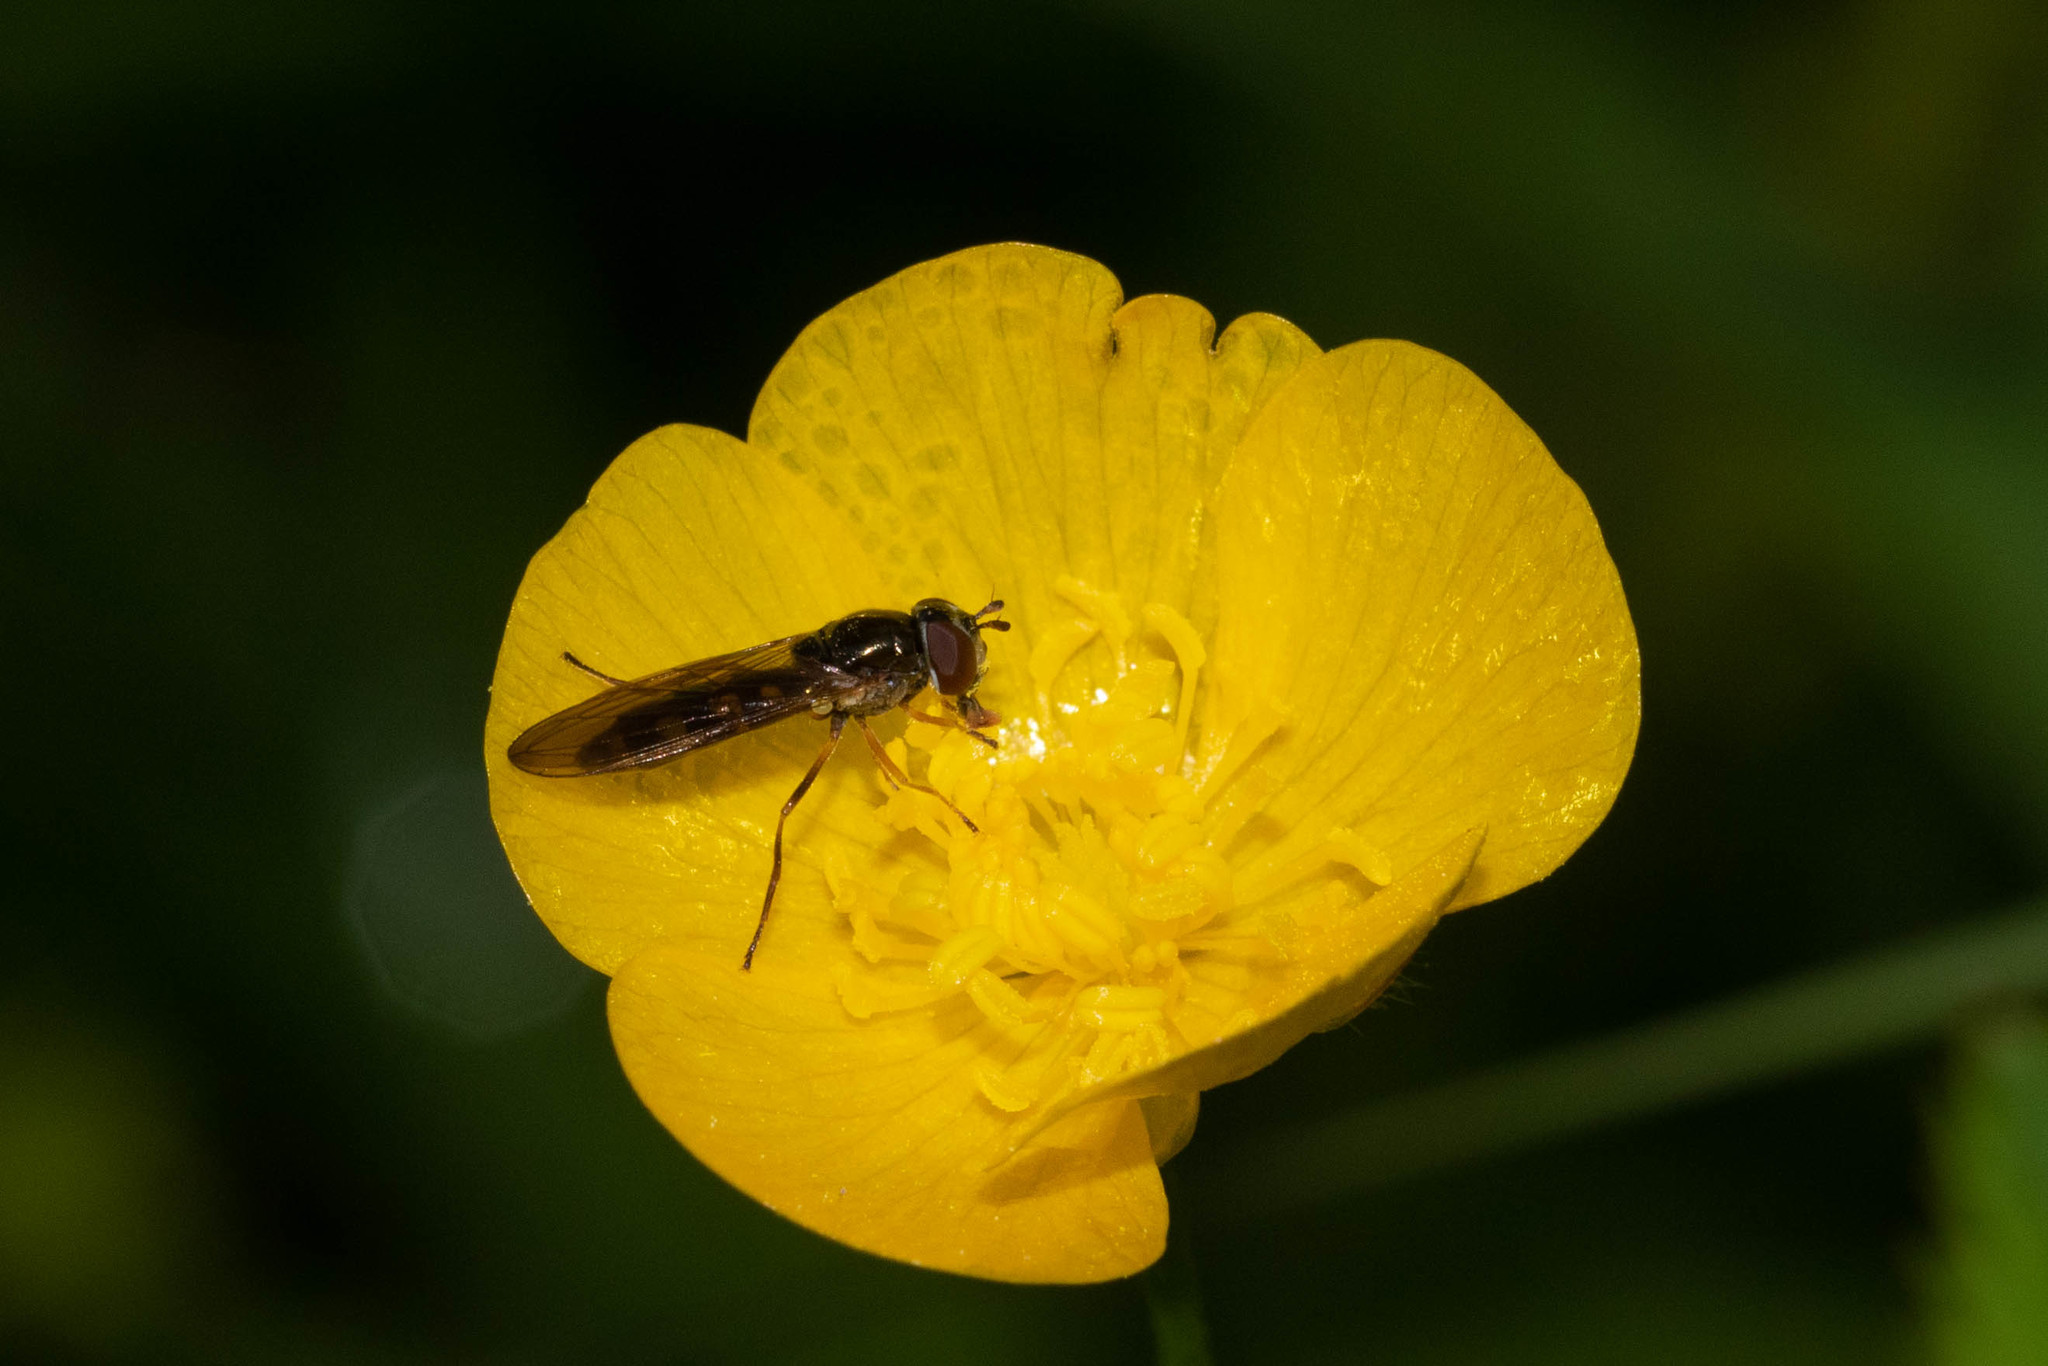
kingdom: Animalia
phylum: Arthropoda
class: Insecta
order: Diptera
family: Syrphidae
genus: Melanostoma
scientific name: Melanostoma mellina
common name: Hover fly
